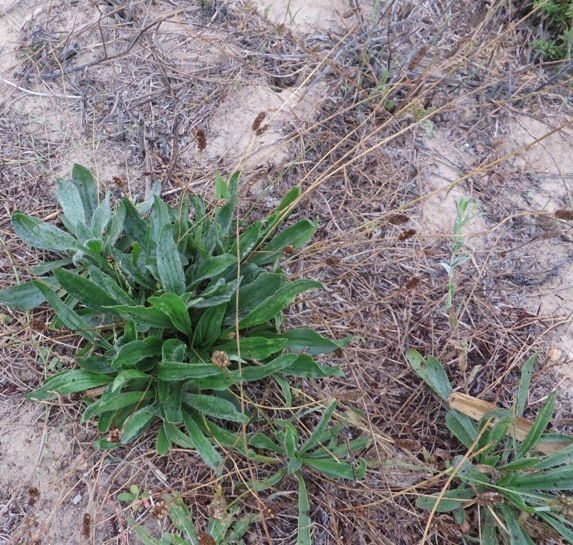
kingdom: Plantae
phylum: Tracheophyta
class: Magnoliopsida
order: Lamiales
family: Plantaginaceae
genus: Plantago
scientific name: Plantago lanceolata
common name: Ribwort plantain
